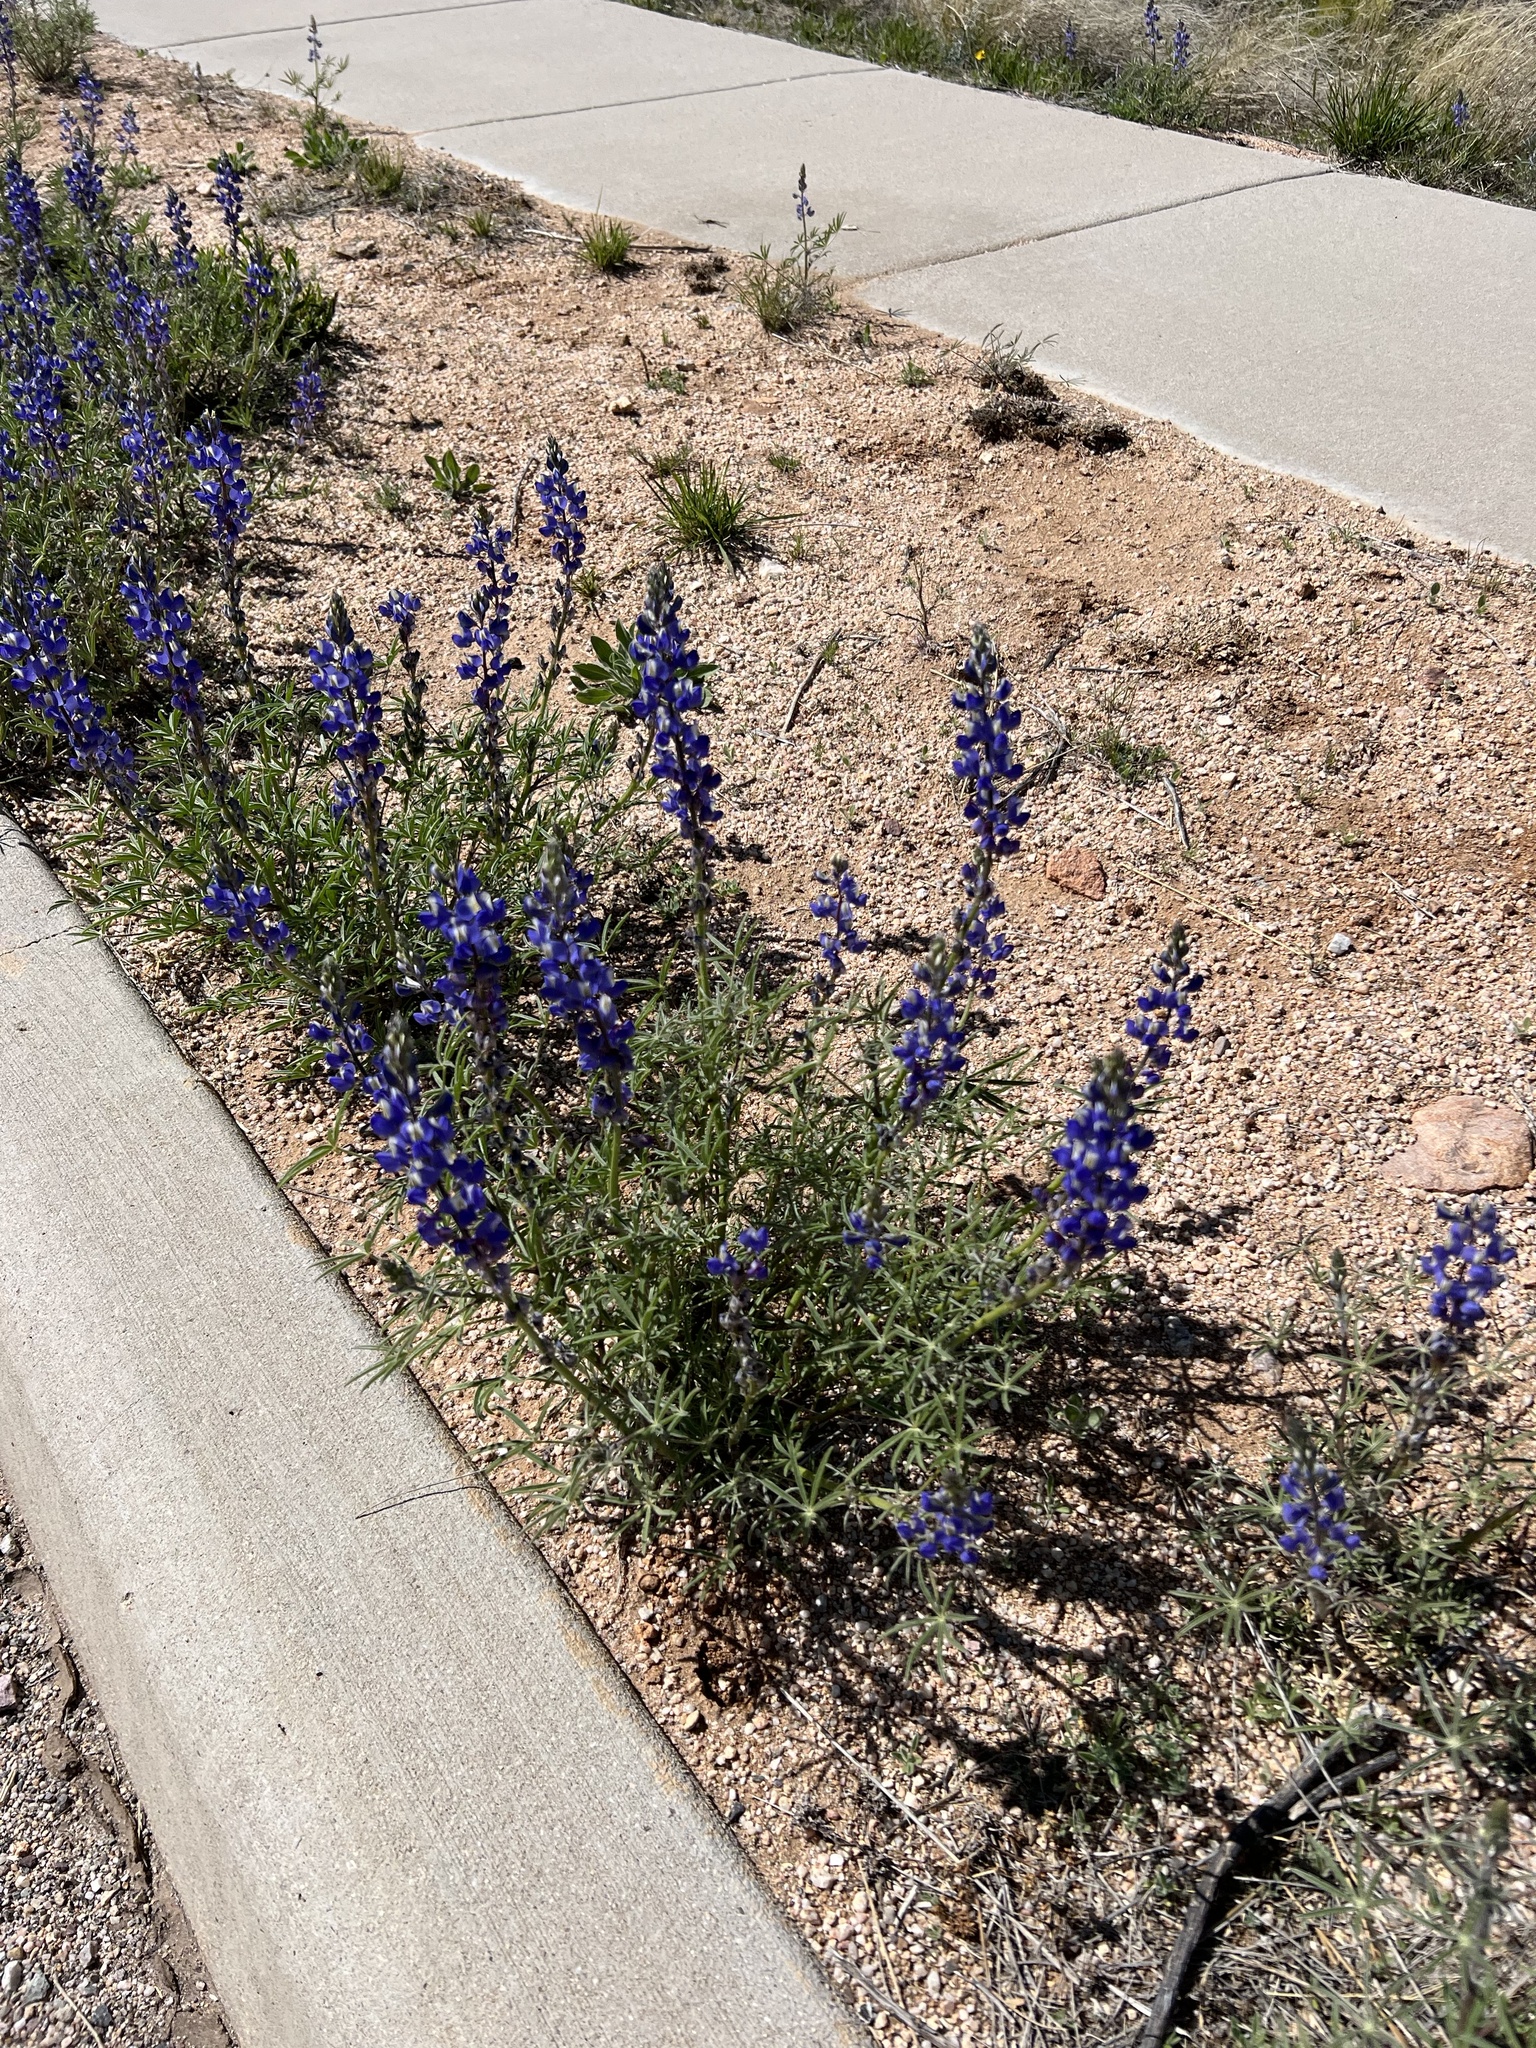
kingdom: Plantae
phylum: Tracheophyta
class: Magnoliopsida
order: Fabales
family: Fabaceae
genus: Lupinus
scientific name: Lupinus sparsiflorus
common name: Coulter's lupine
